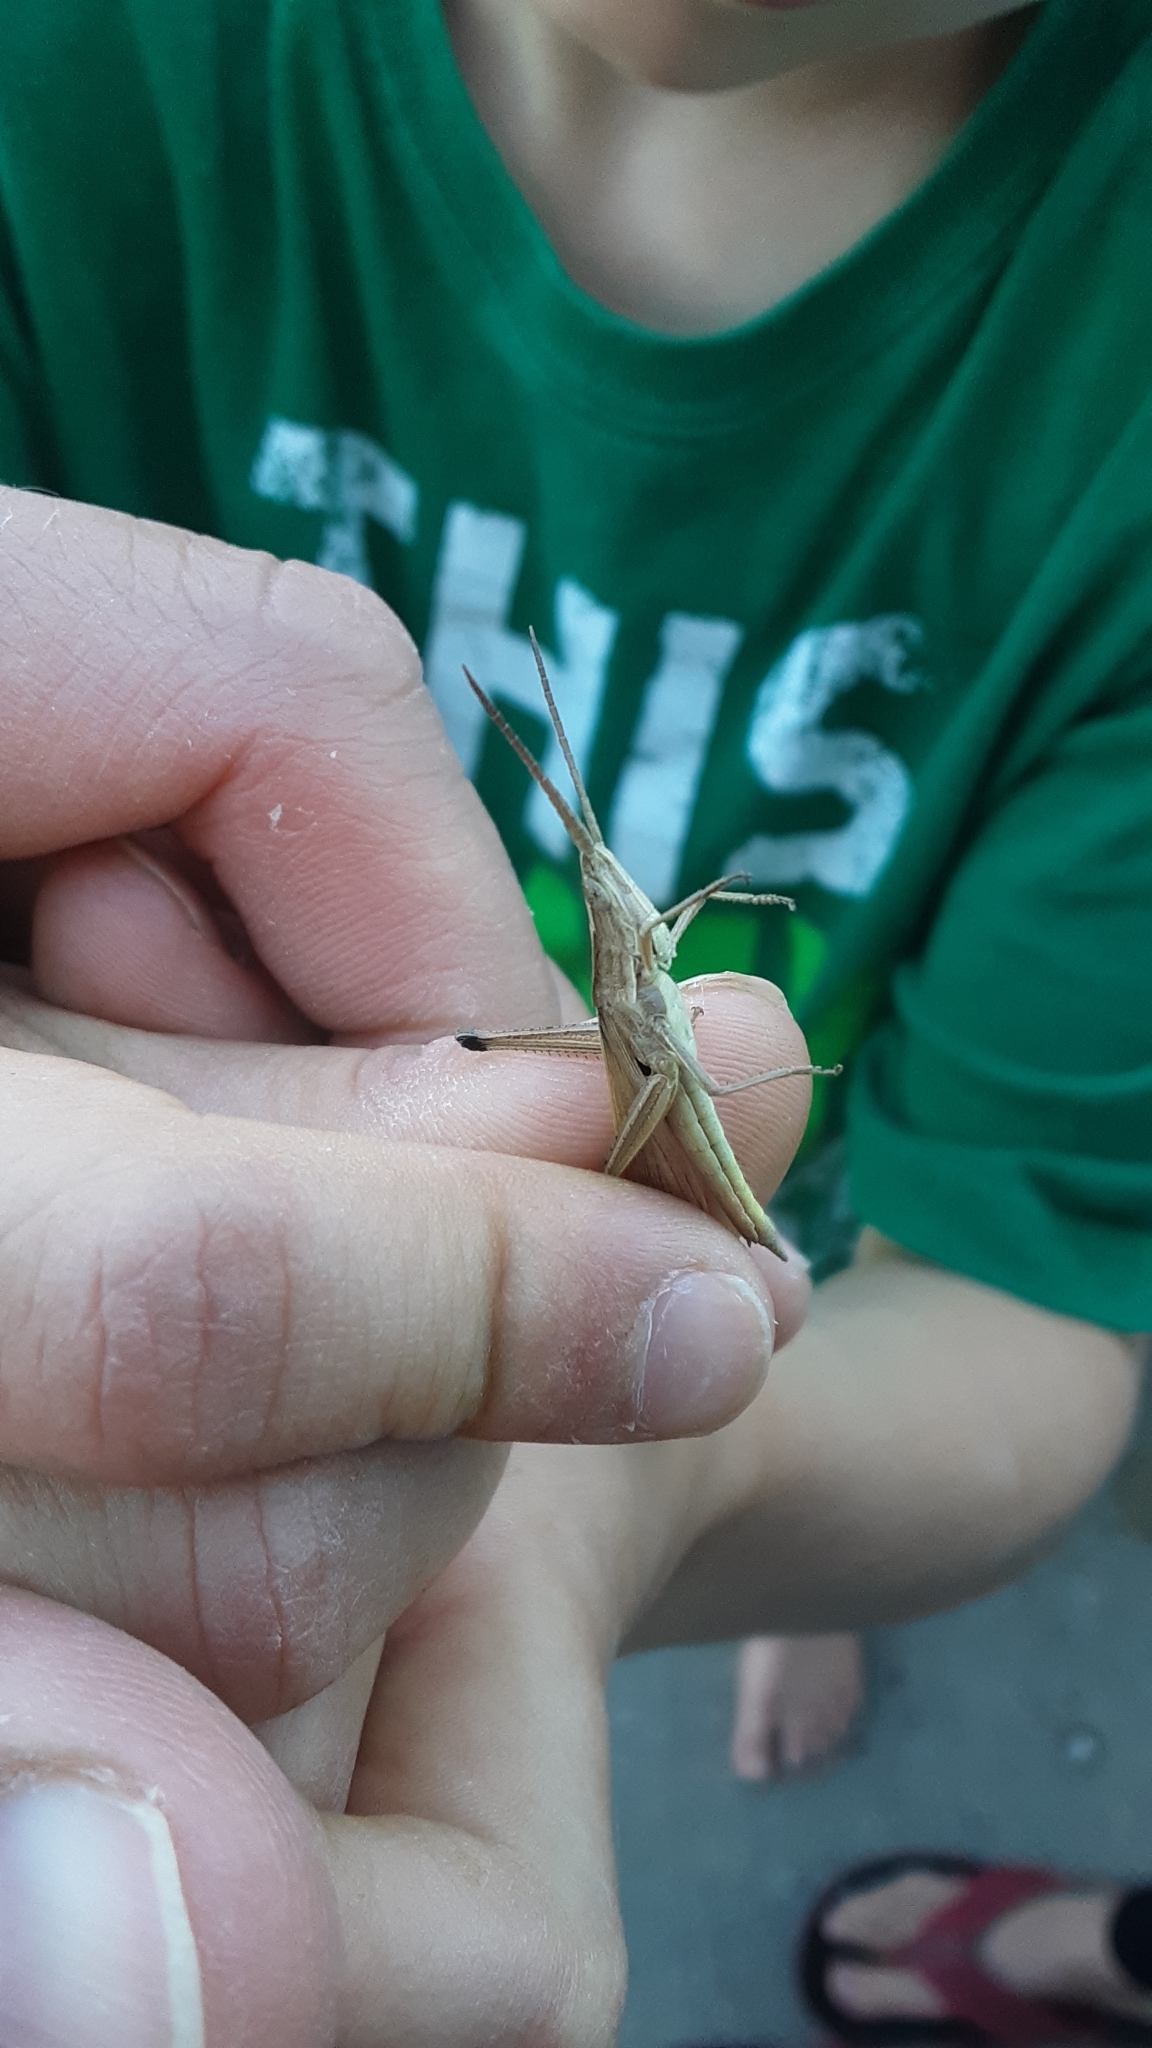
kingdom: Animalia
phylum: Arthropoda
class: Insecta
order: Orthoptera
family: Acrididae
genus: Pseudopomala
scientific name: Pseudopomala brachyptera
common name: Bunchgrass grasshopper
